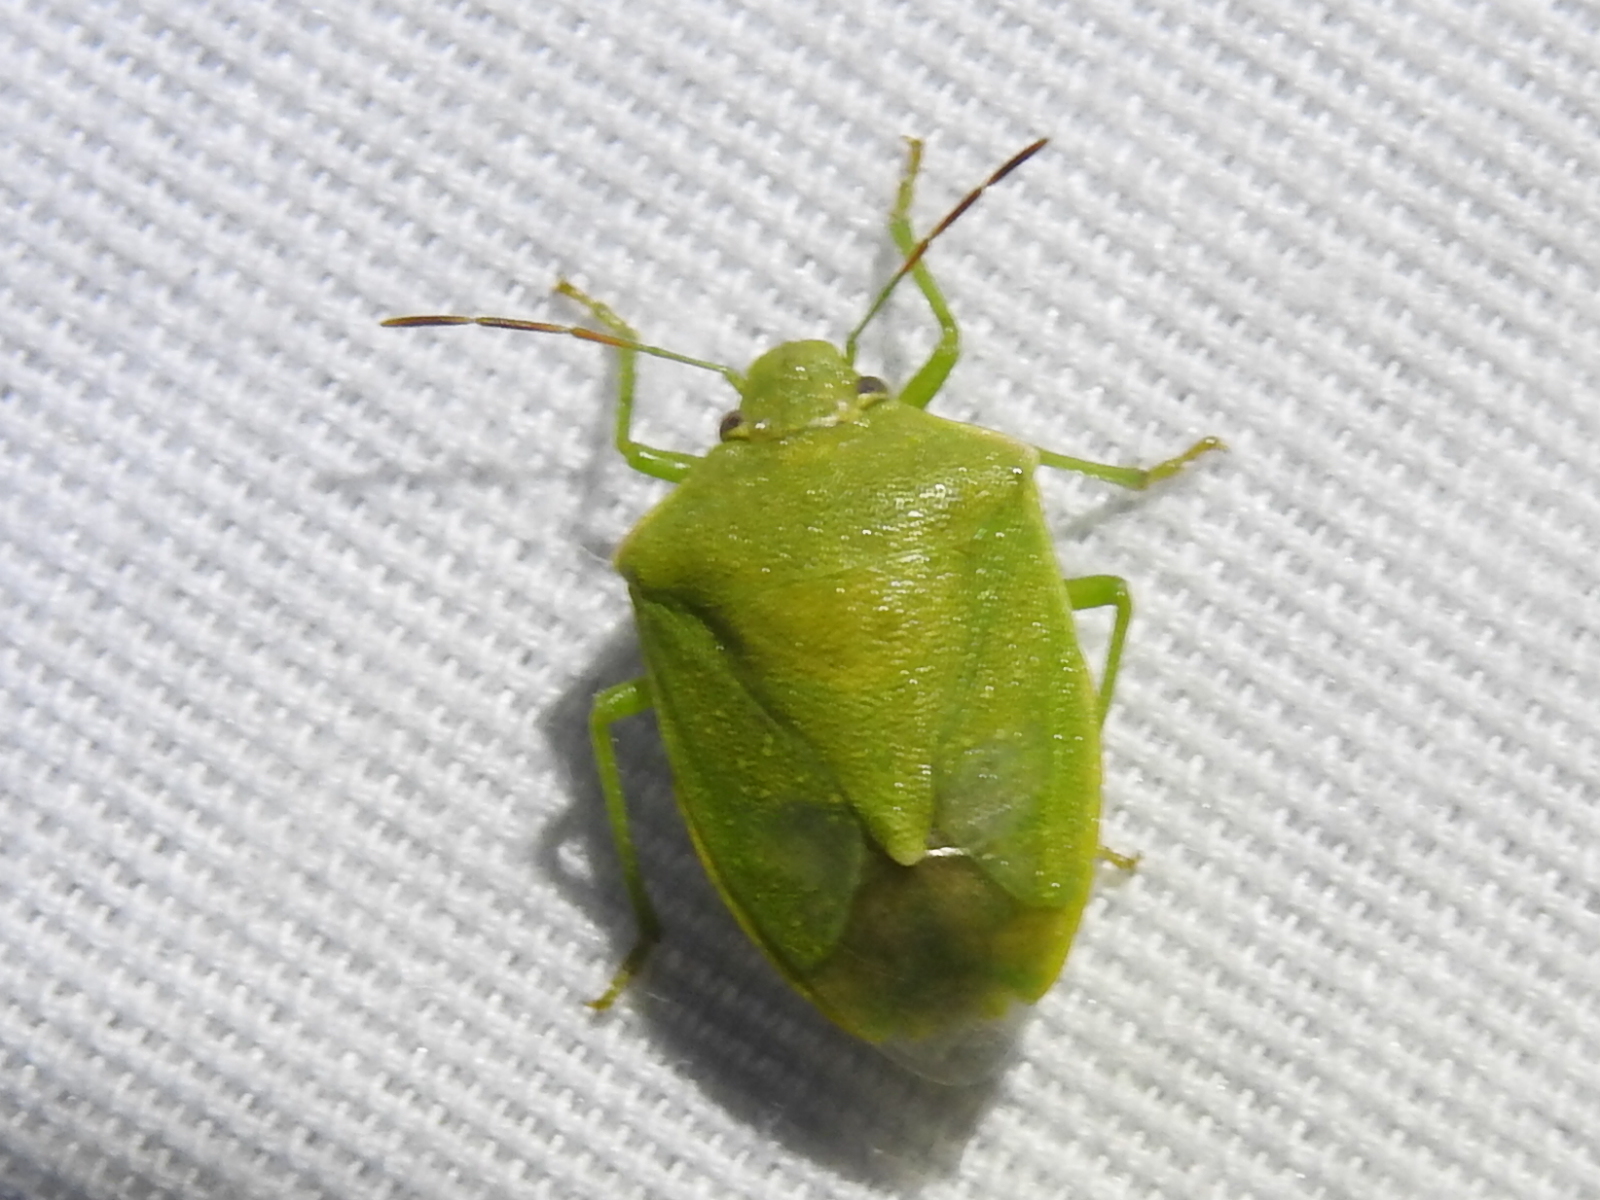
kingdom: Animalia
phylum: Arthropoda
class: Insecta
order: Hemiptera
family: Pentatomidae
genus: Thyanta
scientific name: Thyanta accerra
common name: Stink bug
